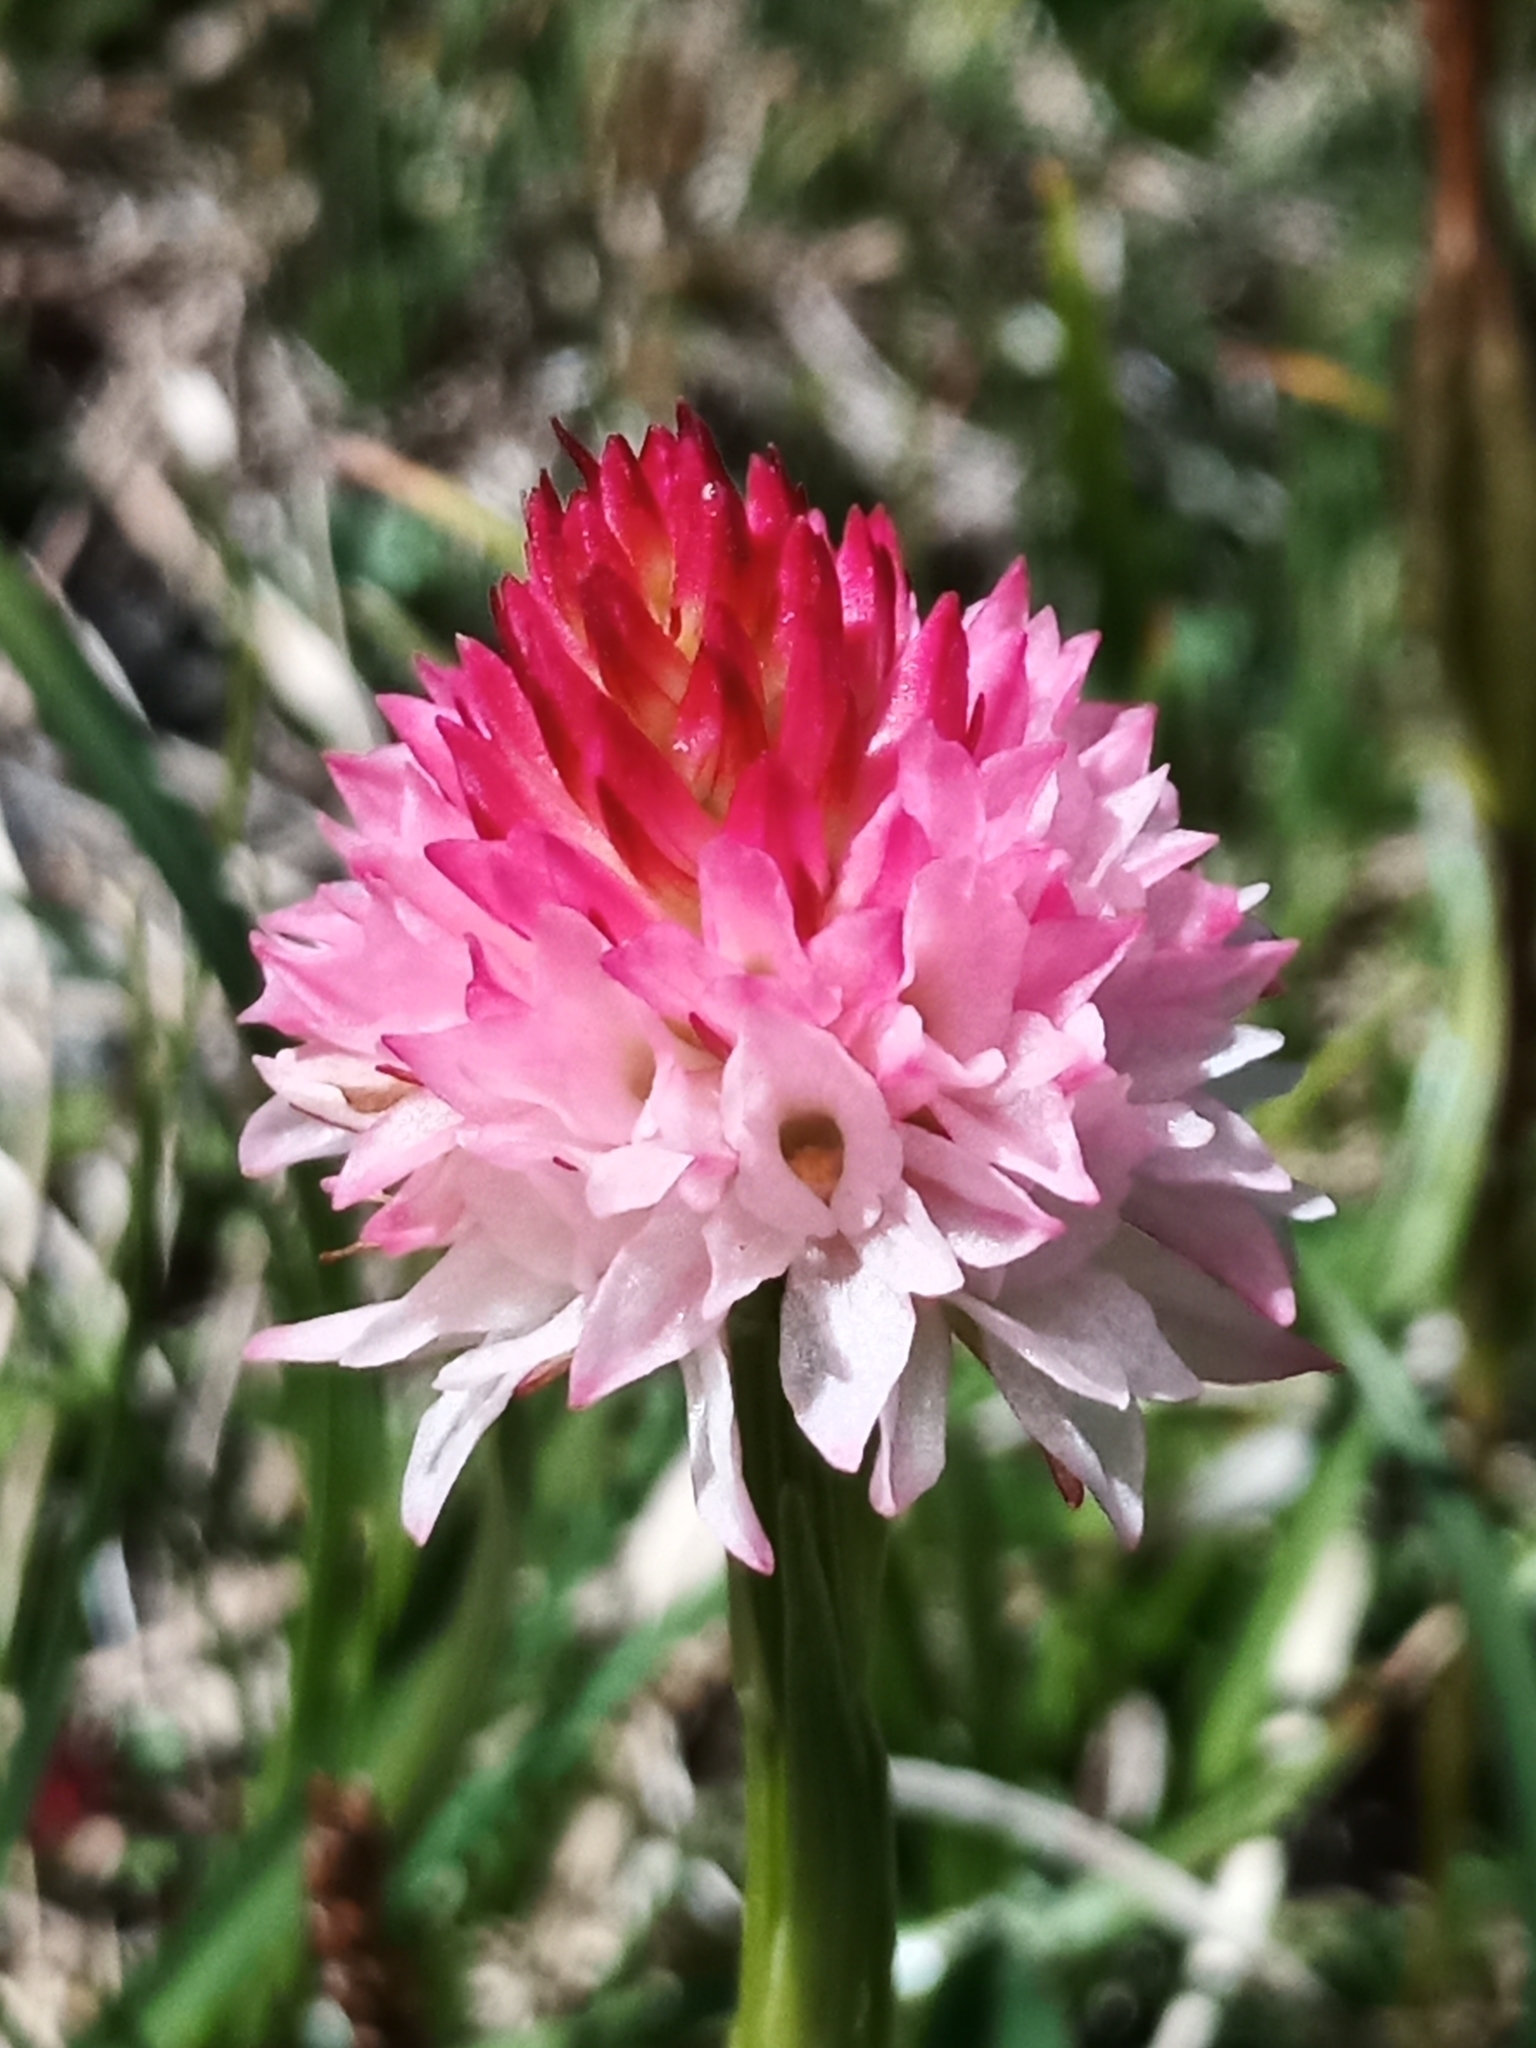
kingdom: Plantae
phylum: Tracheophyta
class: Liliopsida
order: Asparagales
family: Orchidaceae
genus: Gymnadenia
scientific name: Gymnadenia corneliana
